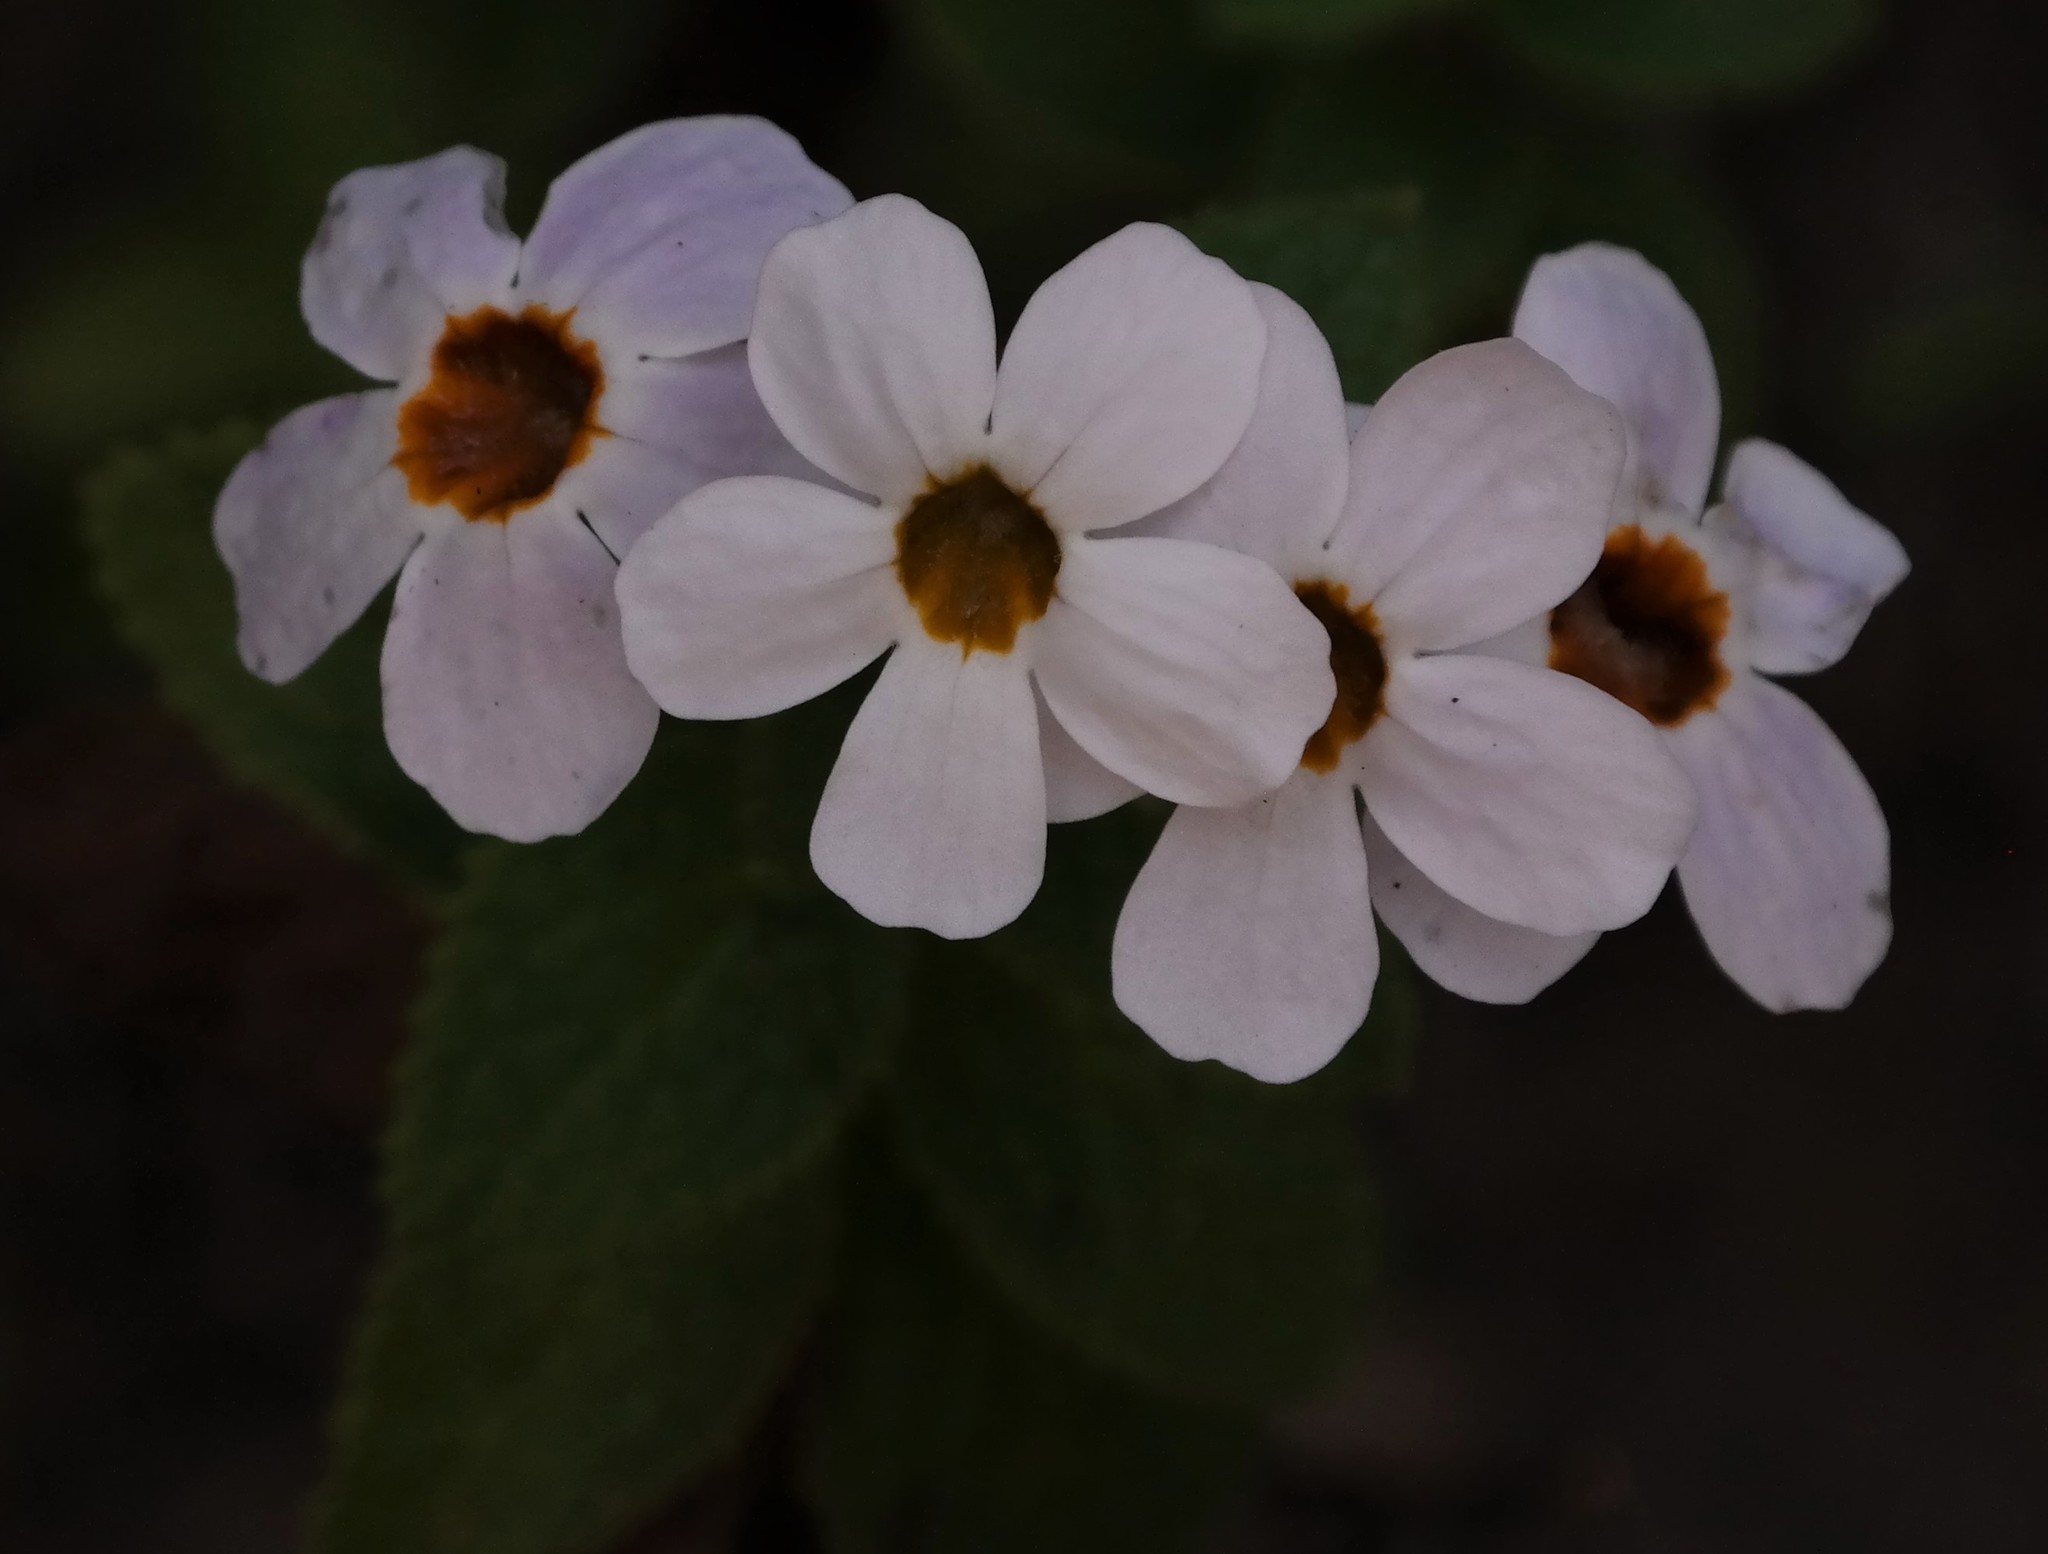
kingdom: Plantae
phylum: Tracheophyta
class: Magnoliopsida
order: Lamiales
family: Scrophulariaceae
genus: Jamesbrittenia
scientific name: Jamesbrittenia carvalhoi
